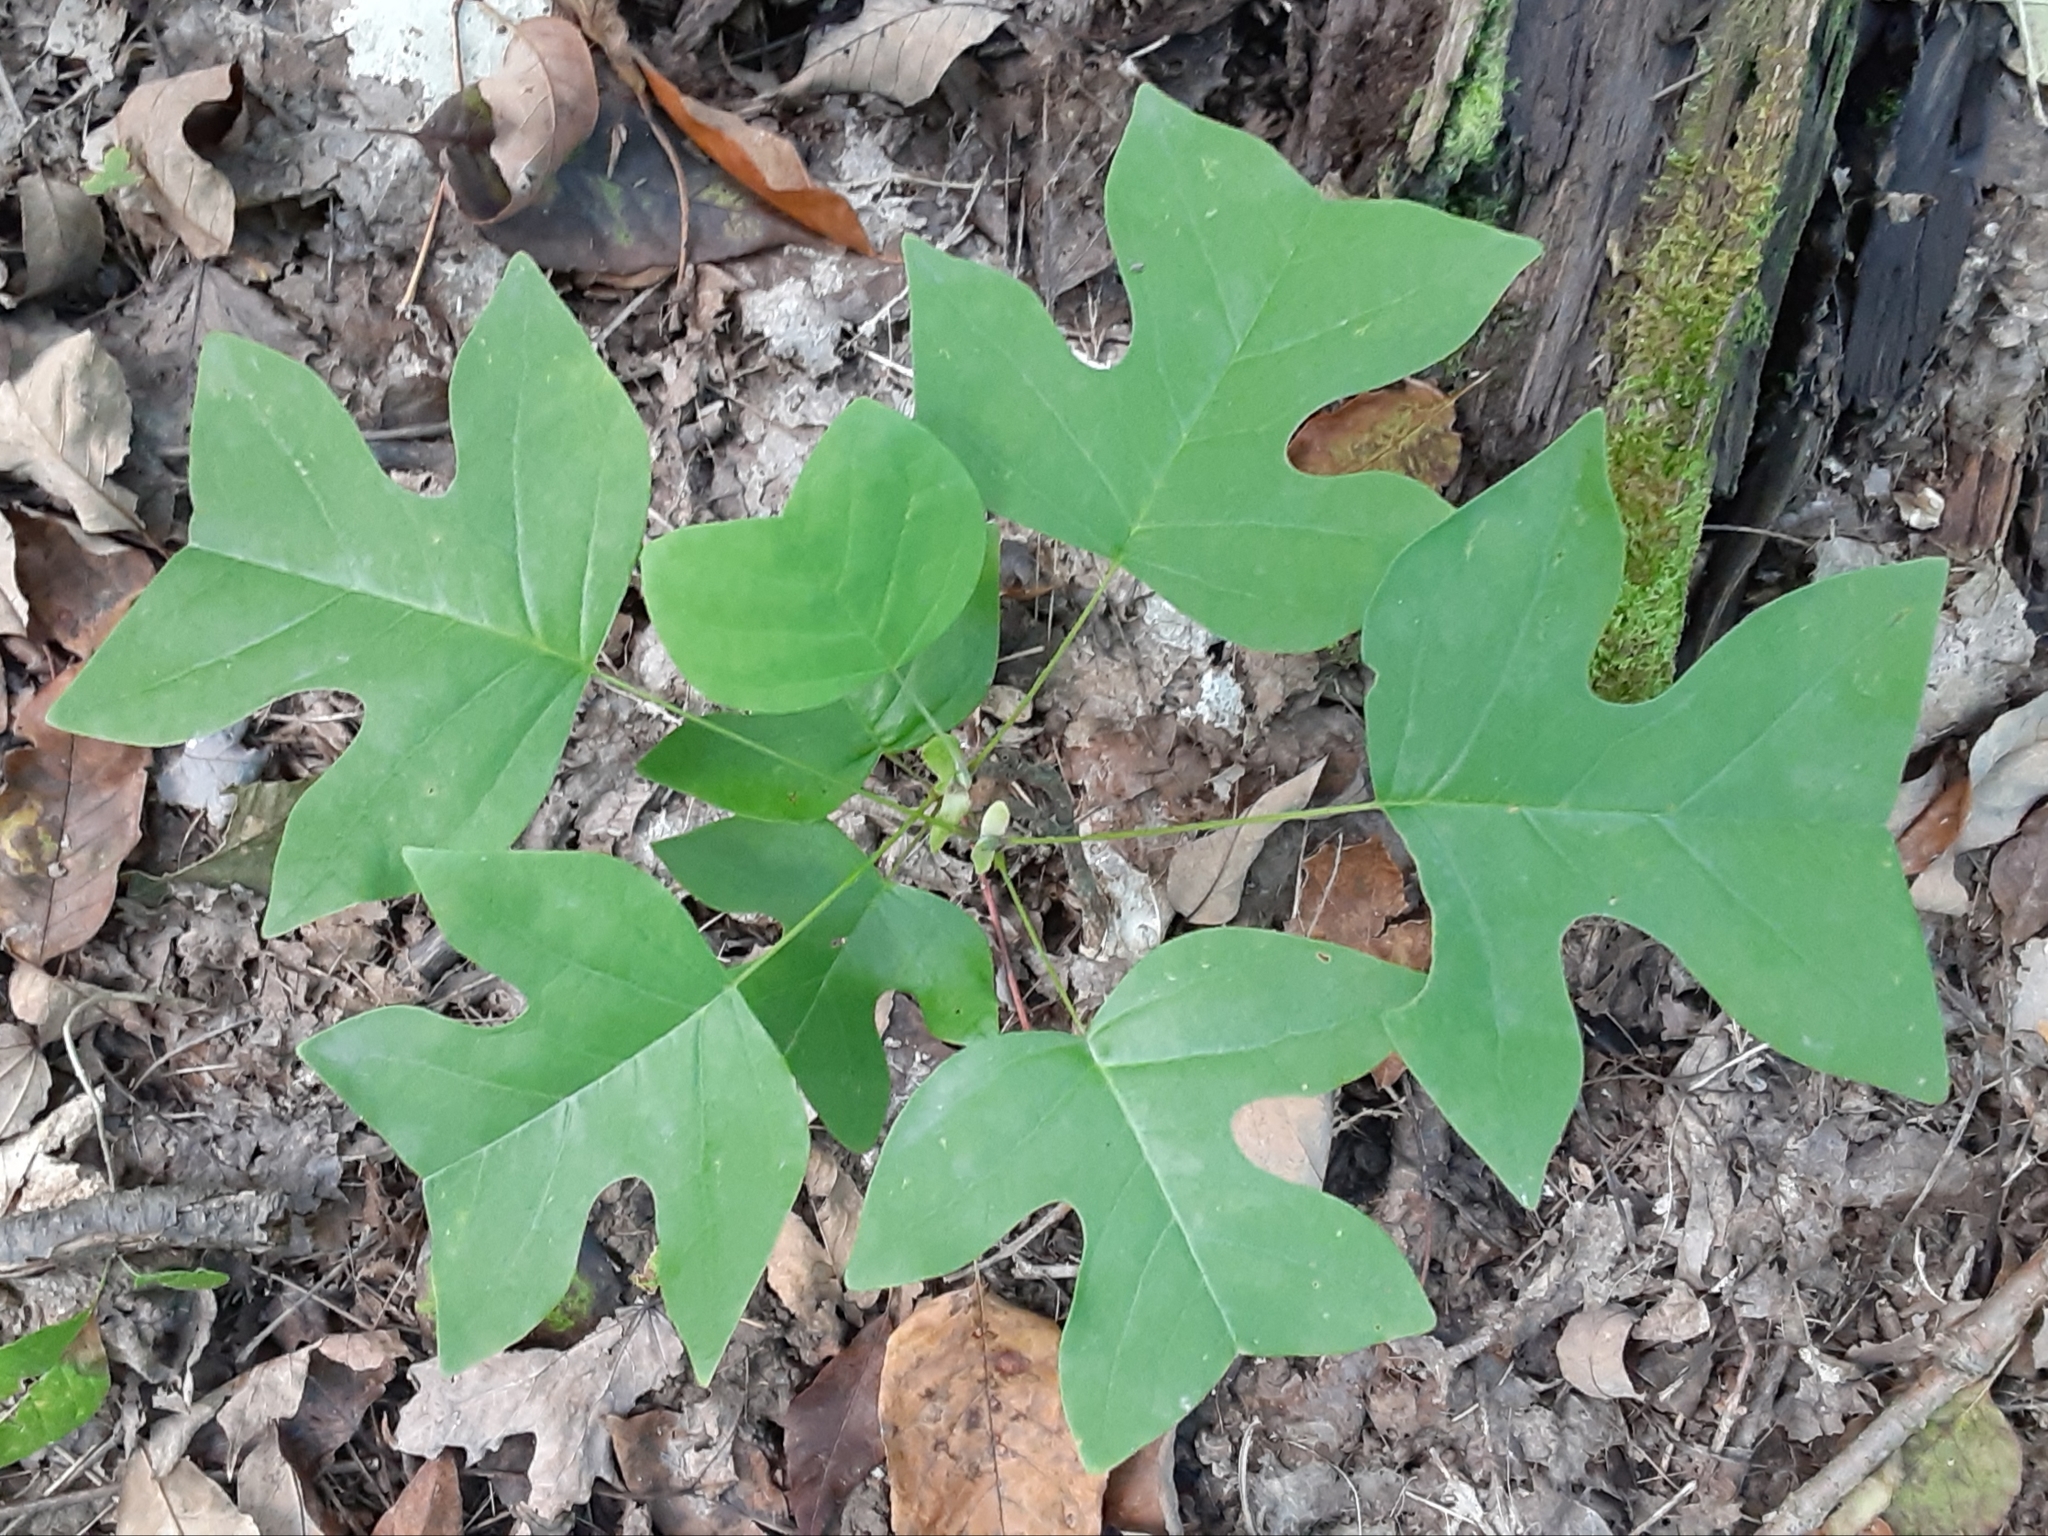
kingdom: Plantae
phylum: Tracheophyta
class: Magnoliopsida
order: Magnoliales
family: Magnoliaceae
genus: Liriodendron
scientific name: Liriodendron tulipifera
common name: Tulip tree
